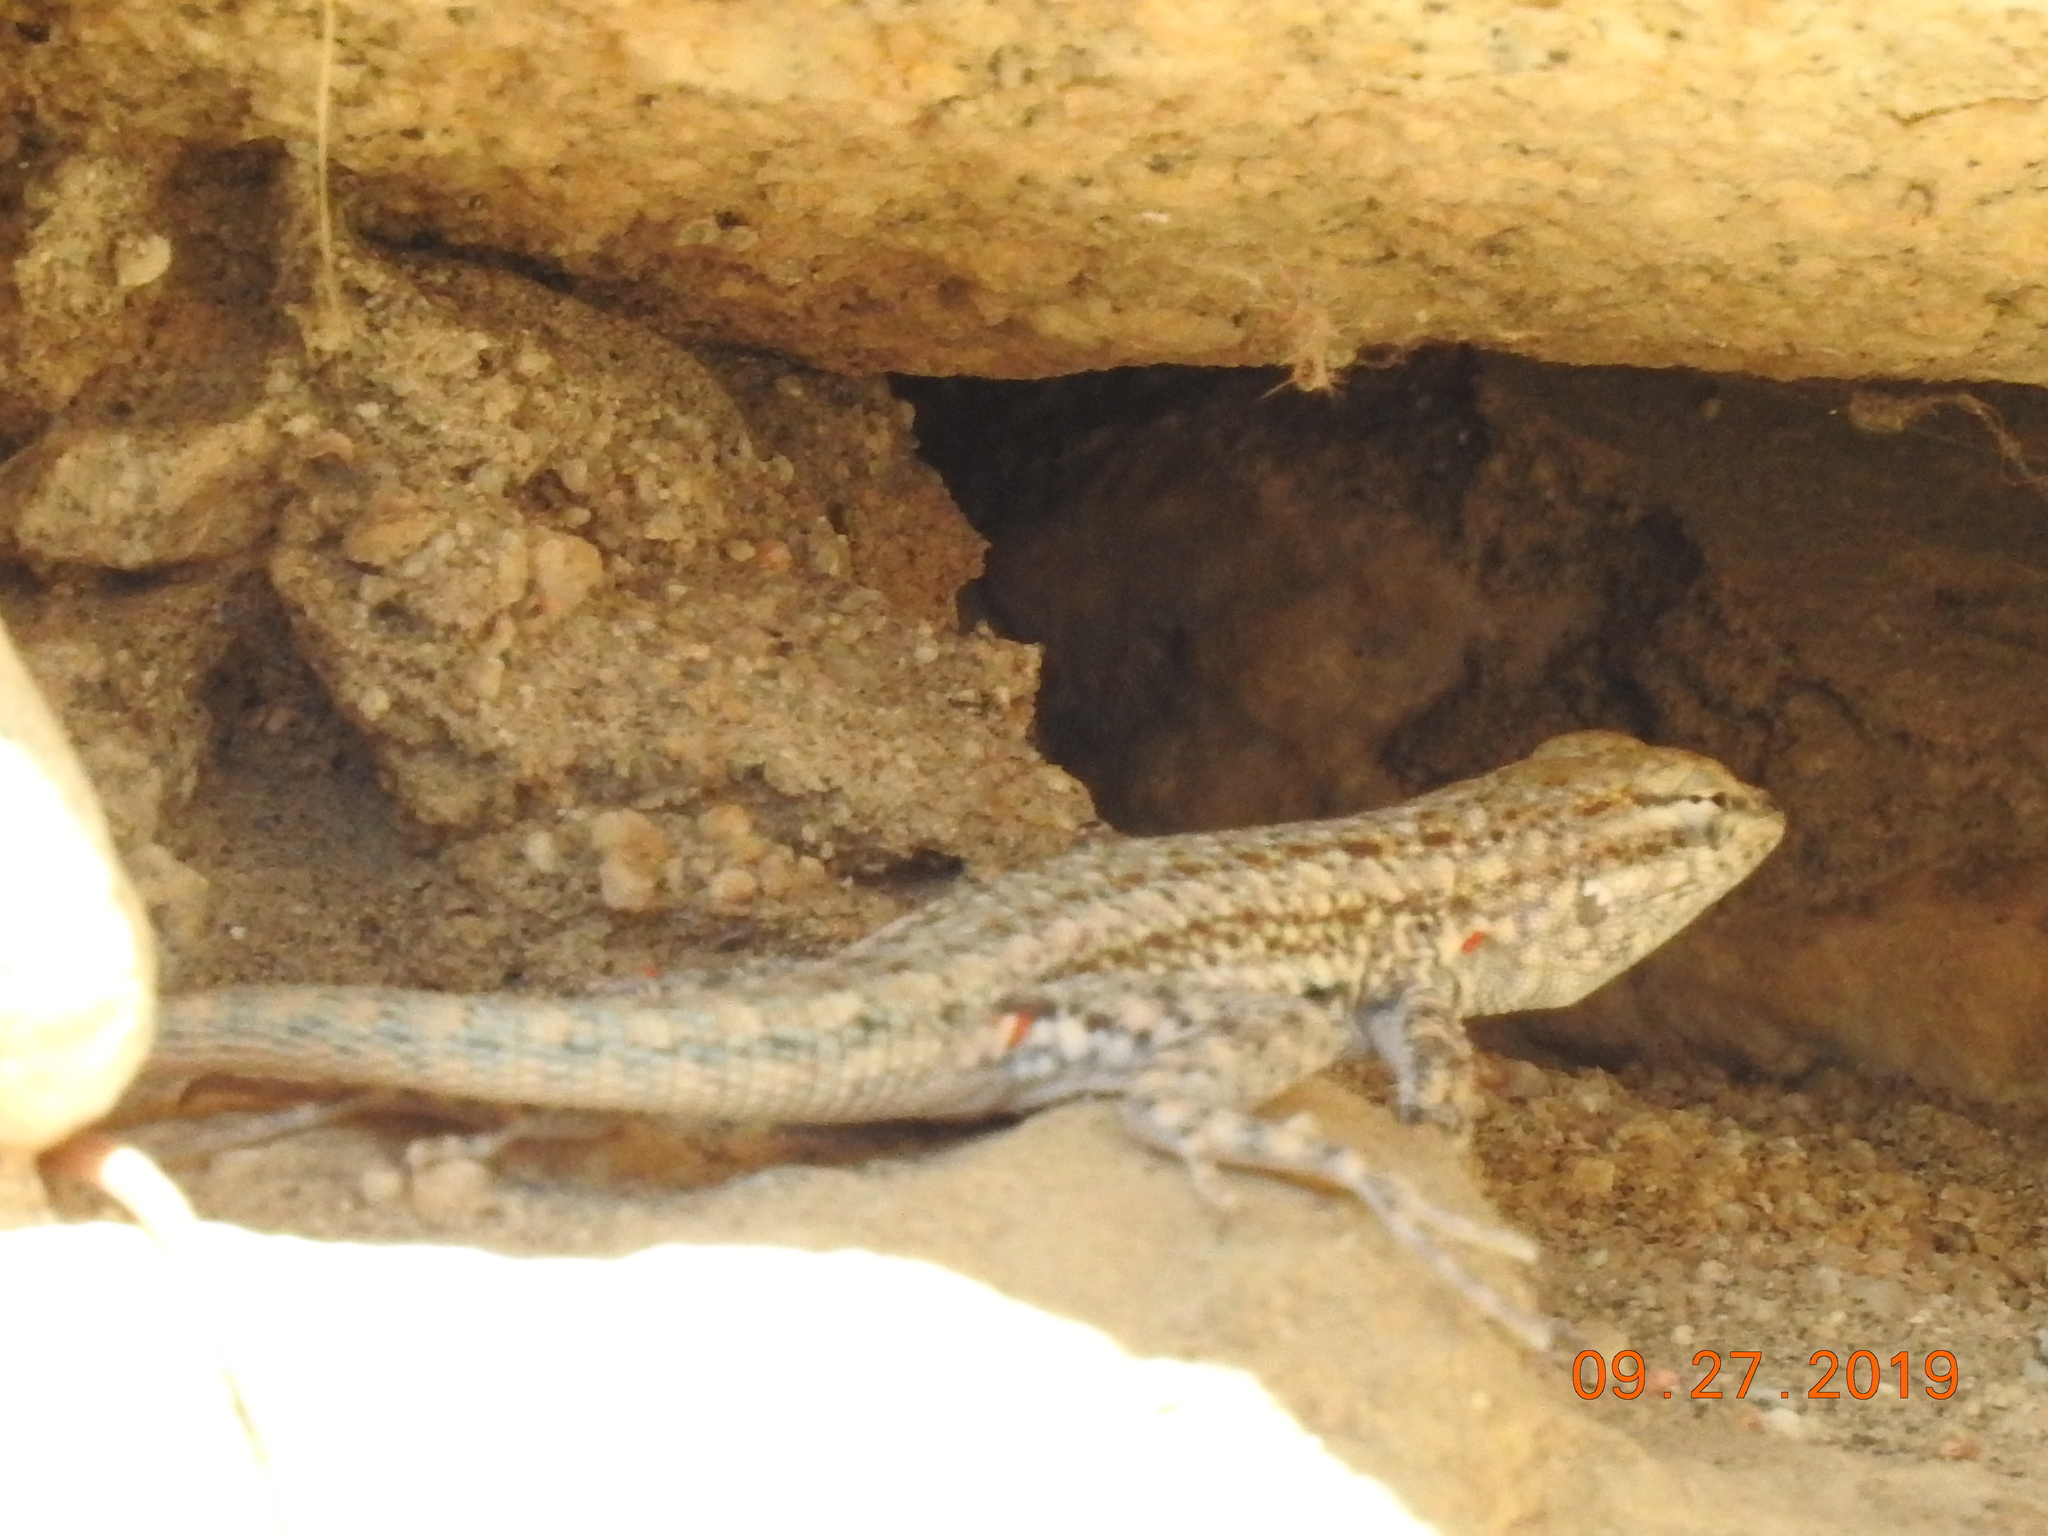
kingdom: Animalia
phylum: Chordata
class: Squamata
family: Phrynosomatidae
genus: Uta
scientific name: Uta stansburiana
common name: Side-blotched lizard
